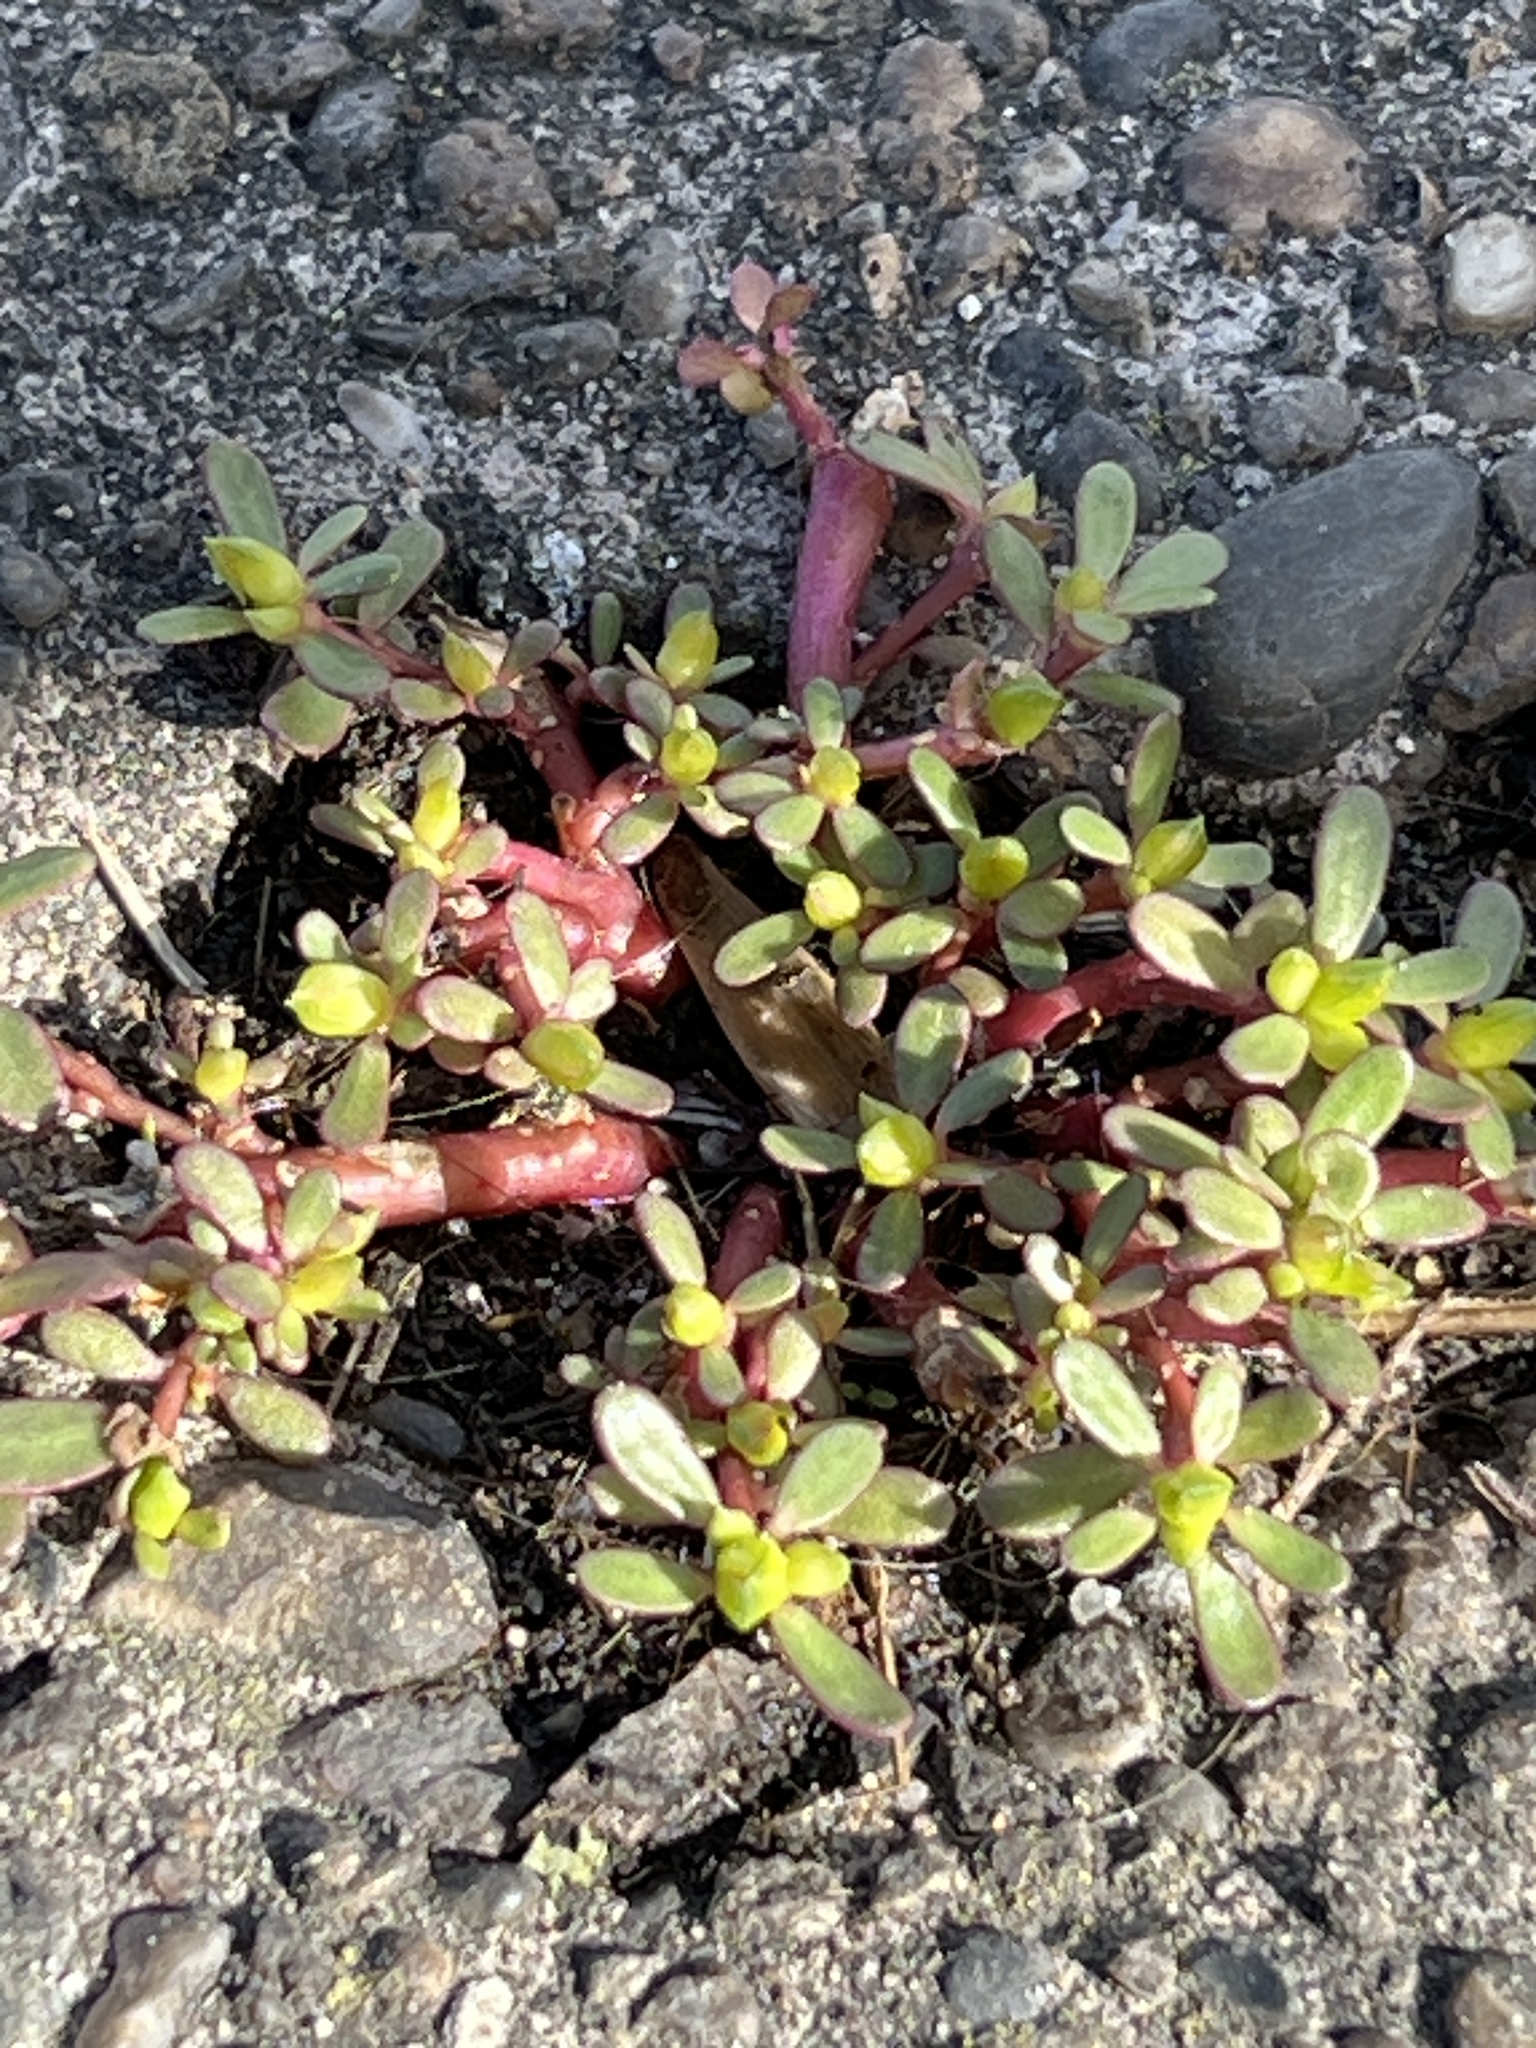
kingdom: Plantae
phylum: Tracheophyta
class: Magnoliopsida
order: Caryophyllales
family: Portulacaceae
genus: Portulaca
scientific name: Portulaca oleracea
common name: Common purslane
